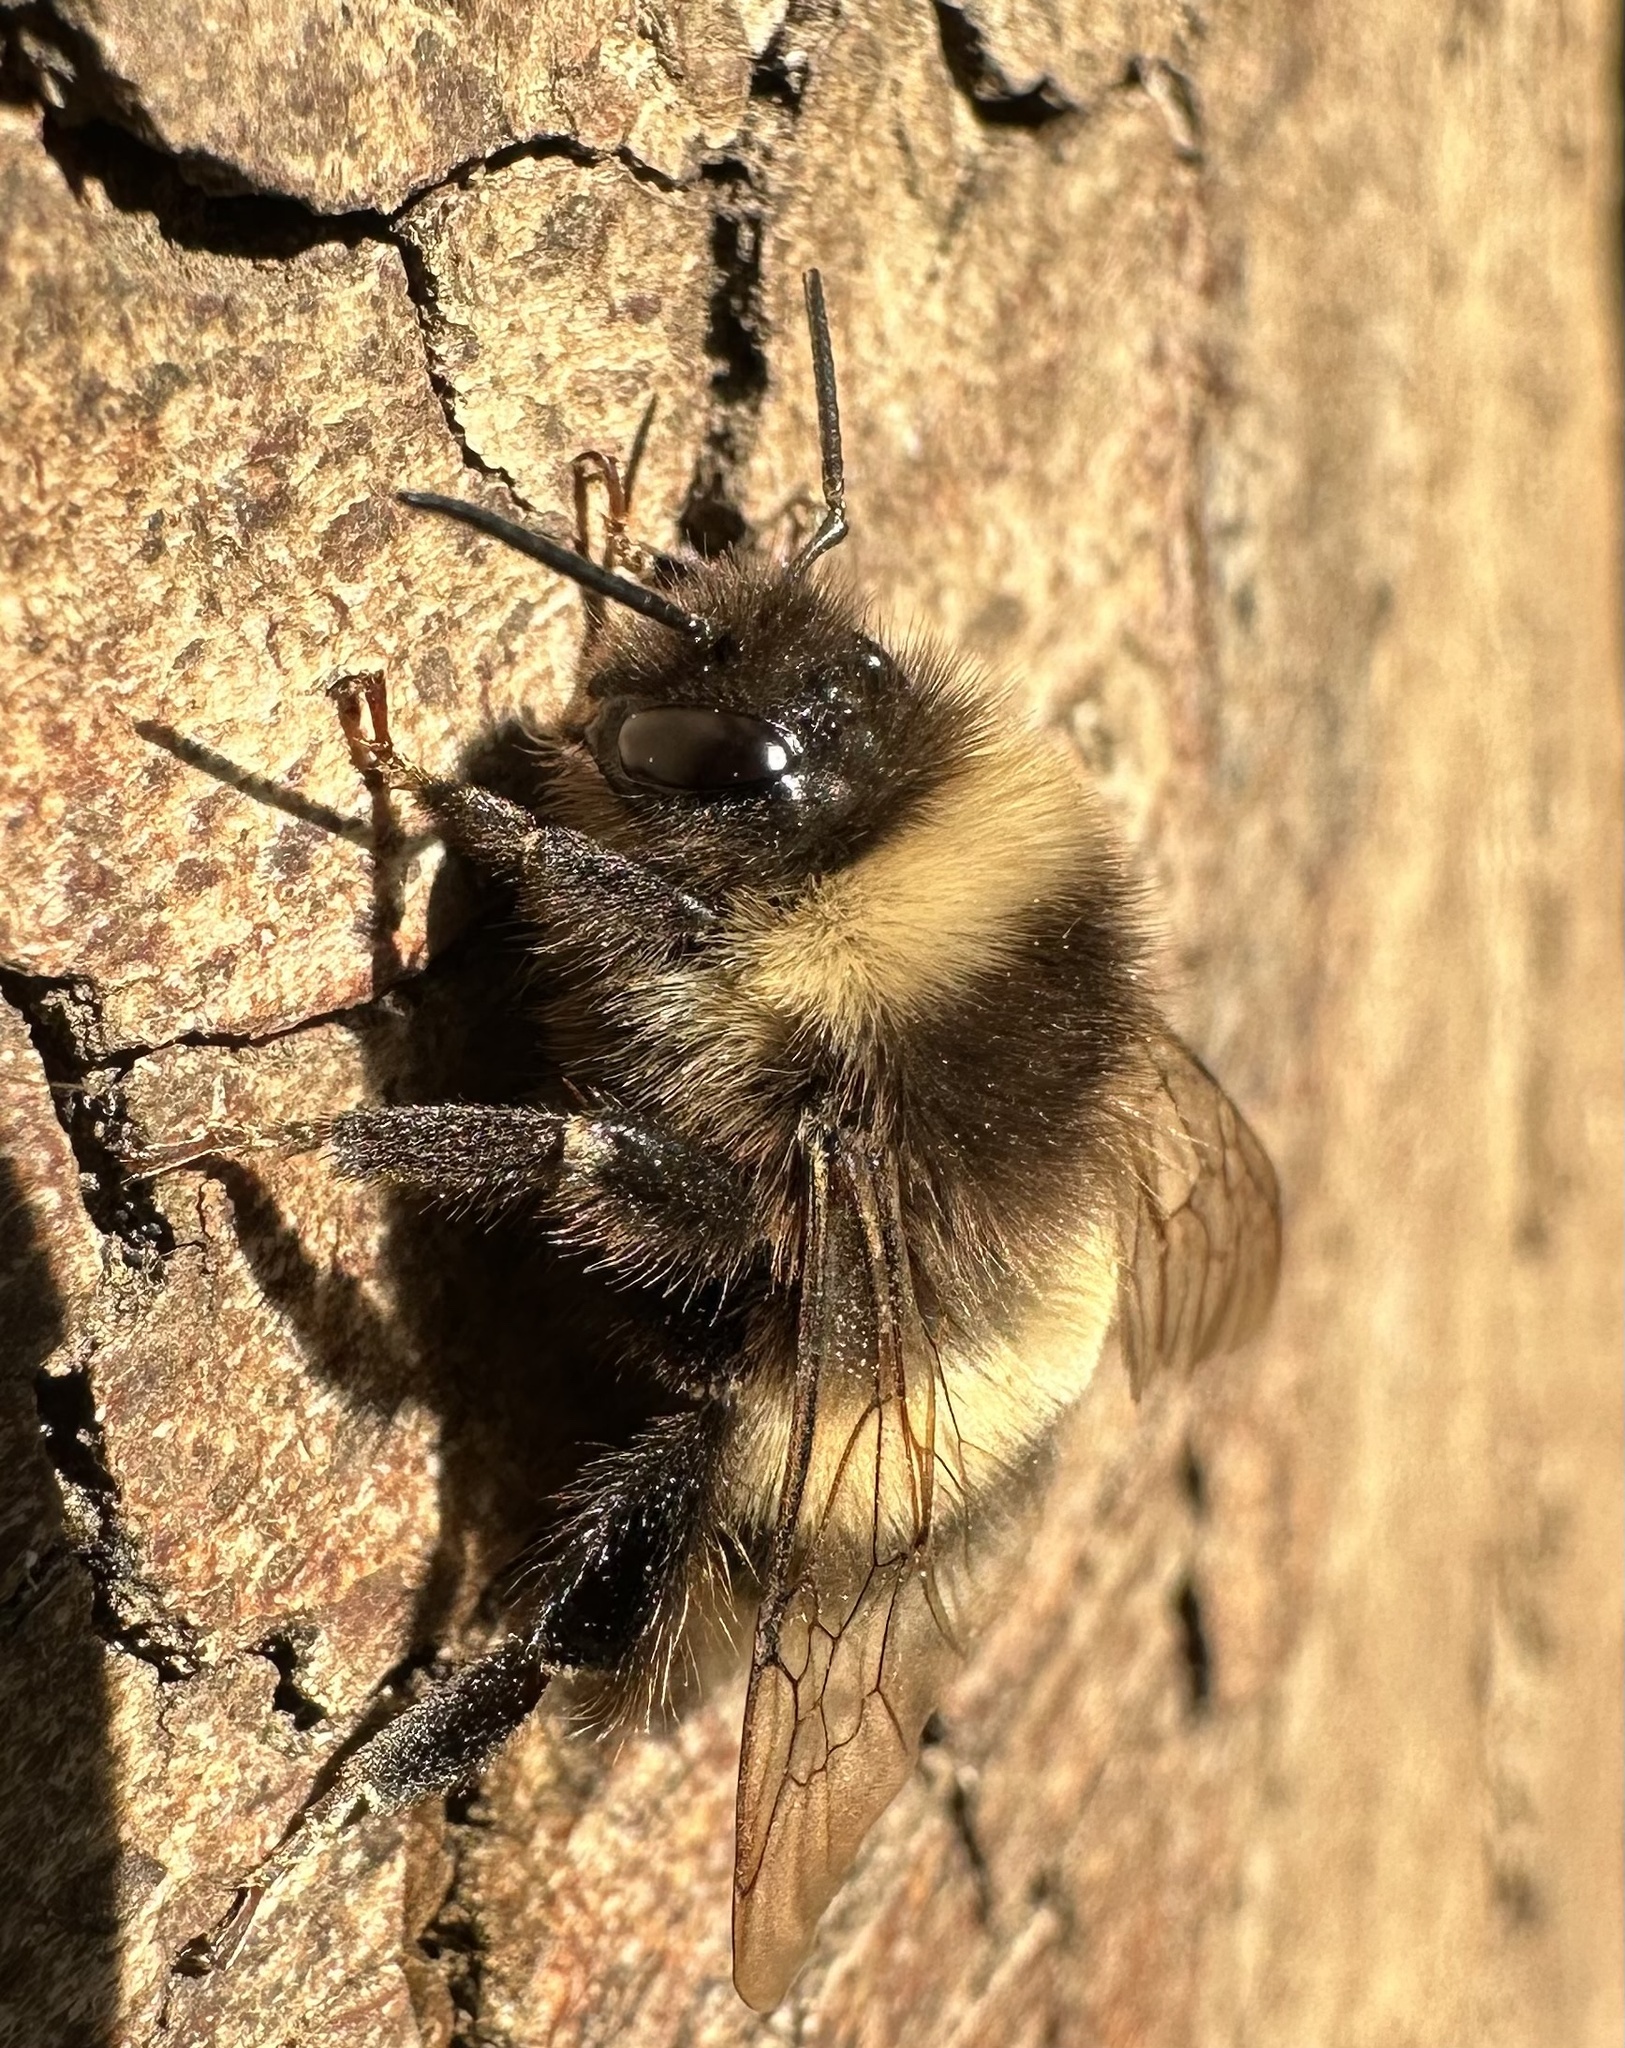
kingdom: Animalia
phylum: Arthropoda
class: Insecta
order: Hymenoptera
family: Apidae
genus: Bombus
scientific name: Bombus terrestris
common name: Buff-tailed bumblebee
